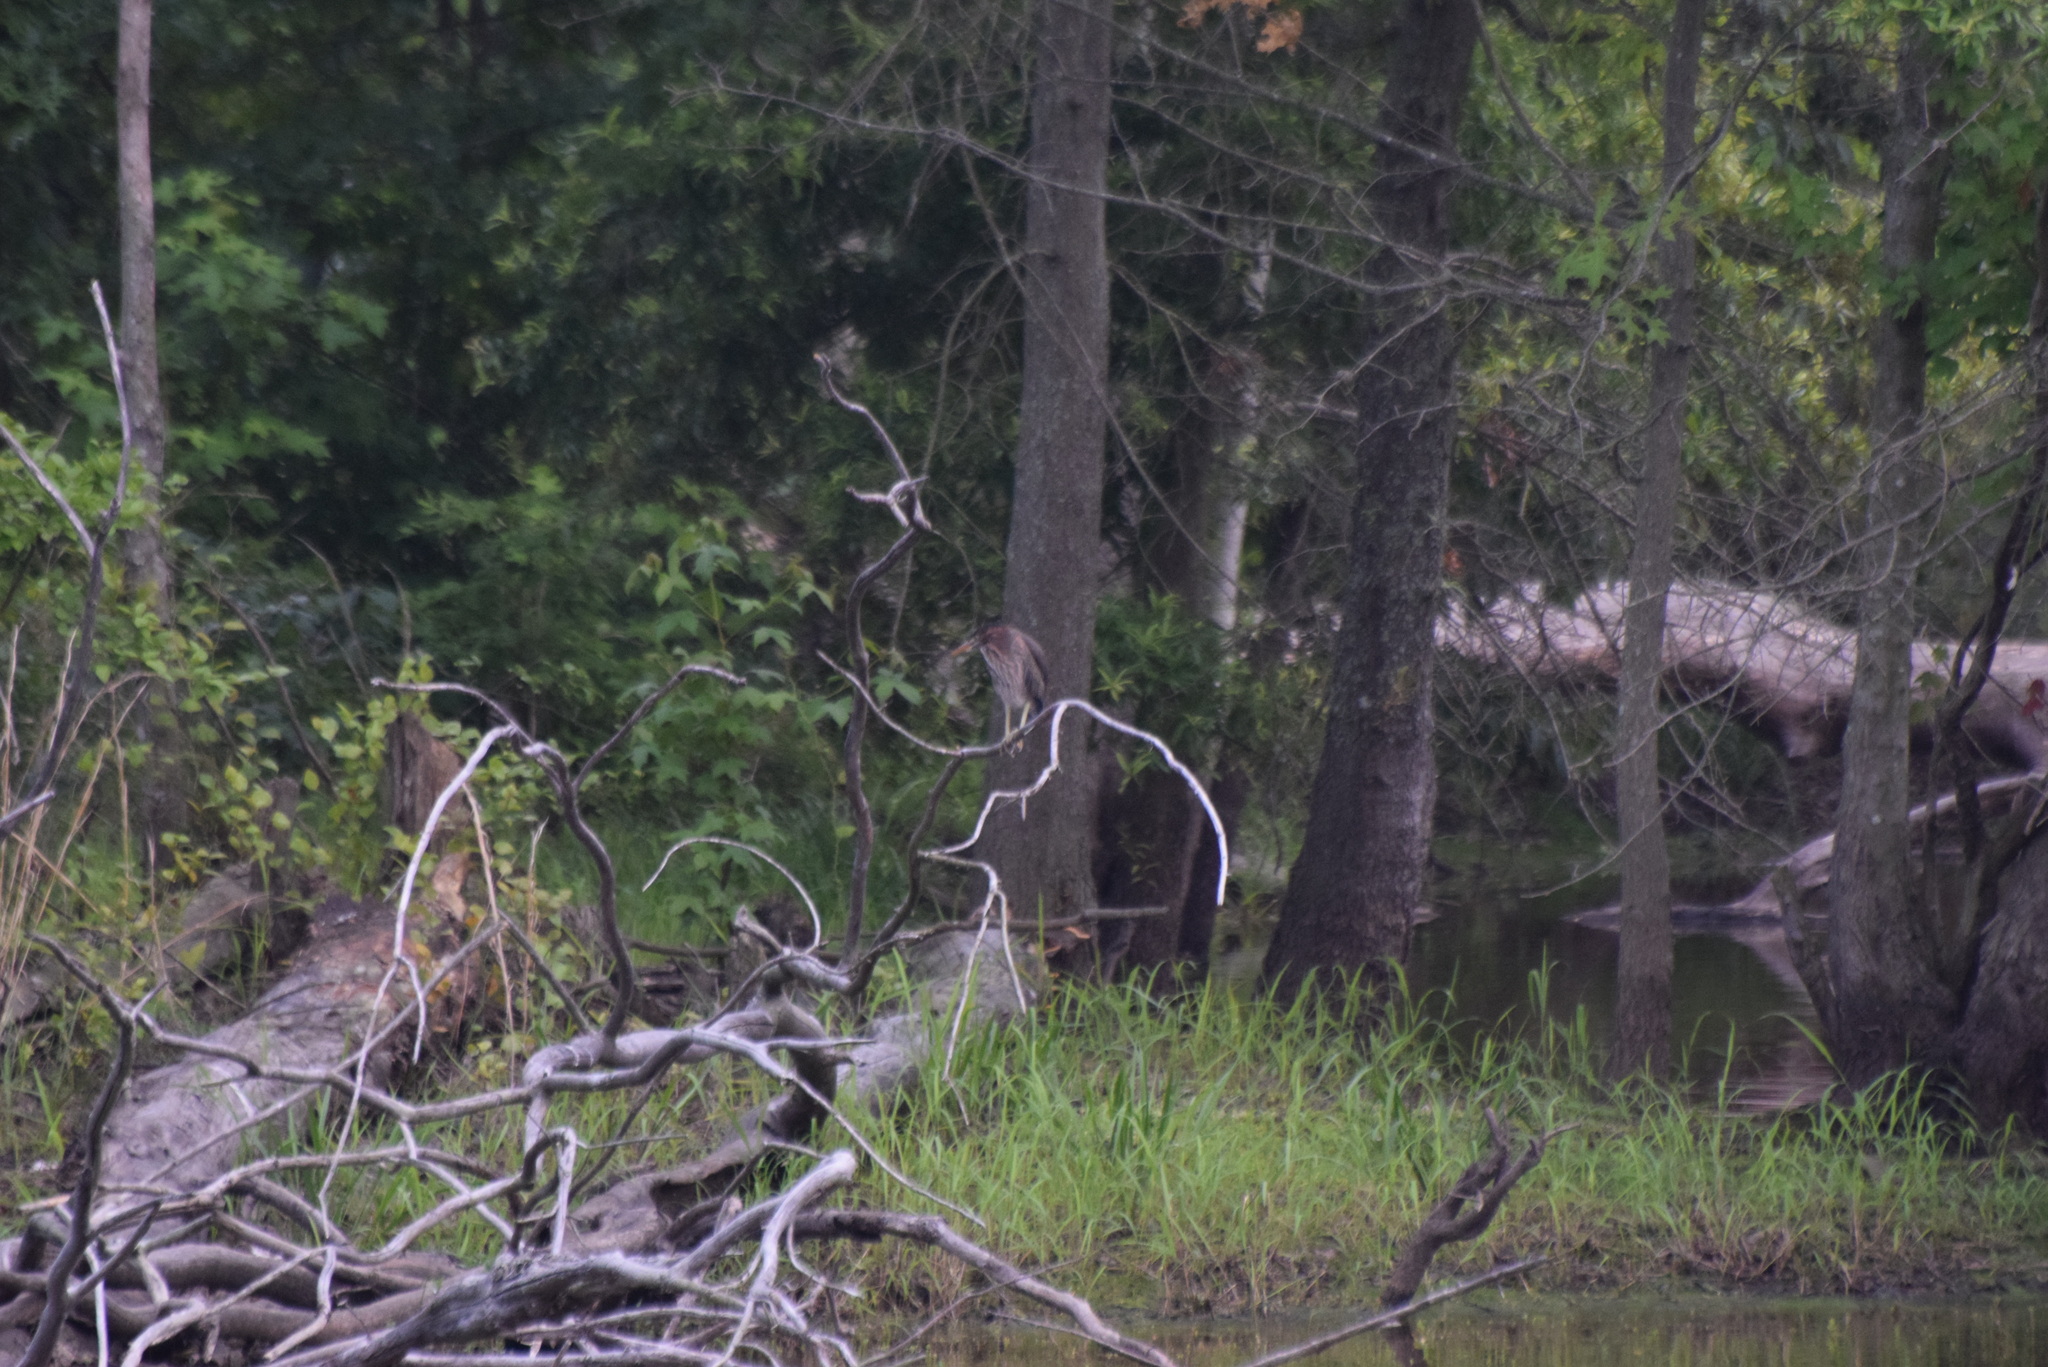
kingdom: Animalia
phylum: Chordata
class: Aves
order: Pelecaniformes
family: Ardeidae
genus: Butorides
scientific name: Butorides virescens
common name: Green heron
